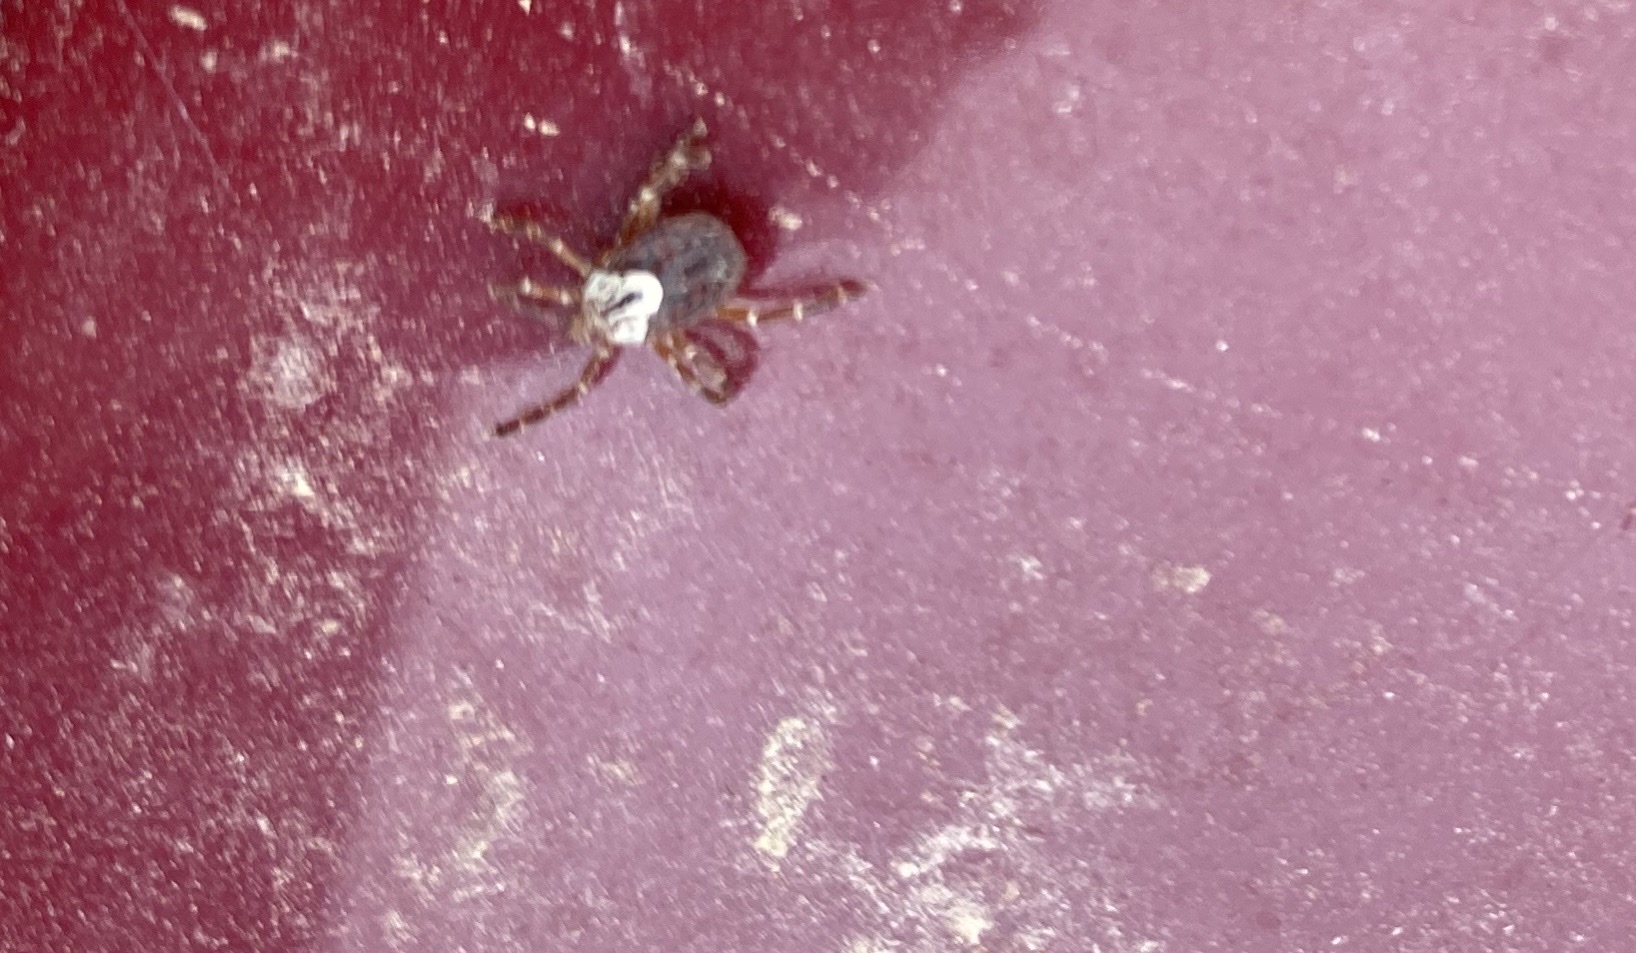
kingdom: Animalia
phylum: Arthropoda
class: Arachnida
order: Ixodida
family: Ixodidae
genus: Amblyomma
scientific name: Amblyomma maculatum
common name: Gulf coast tick
